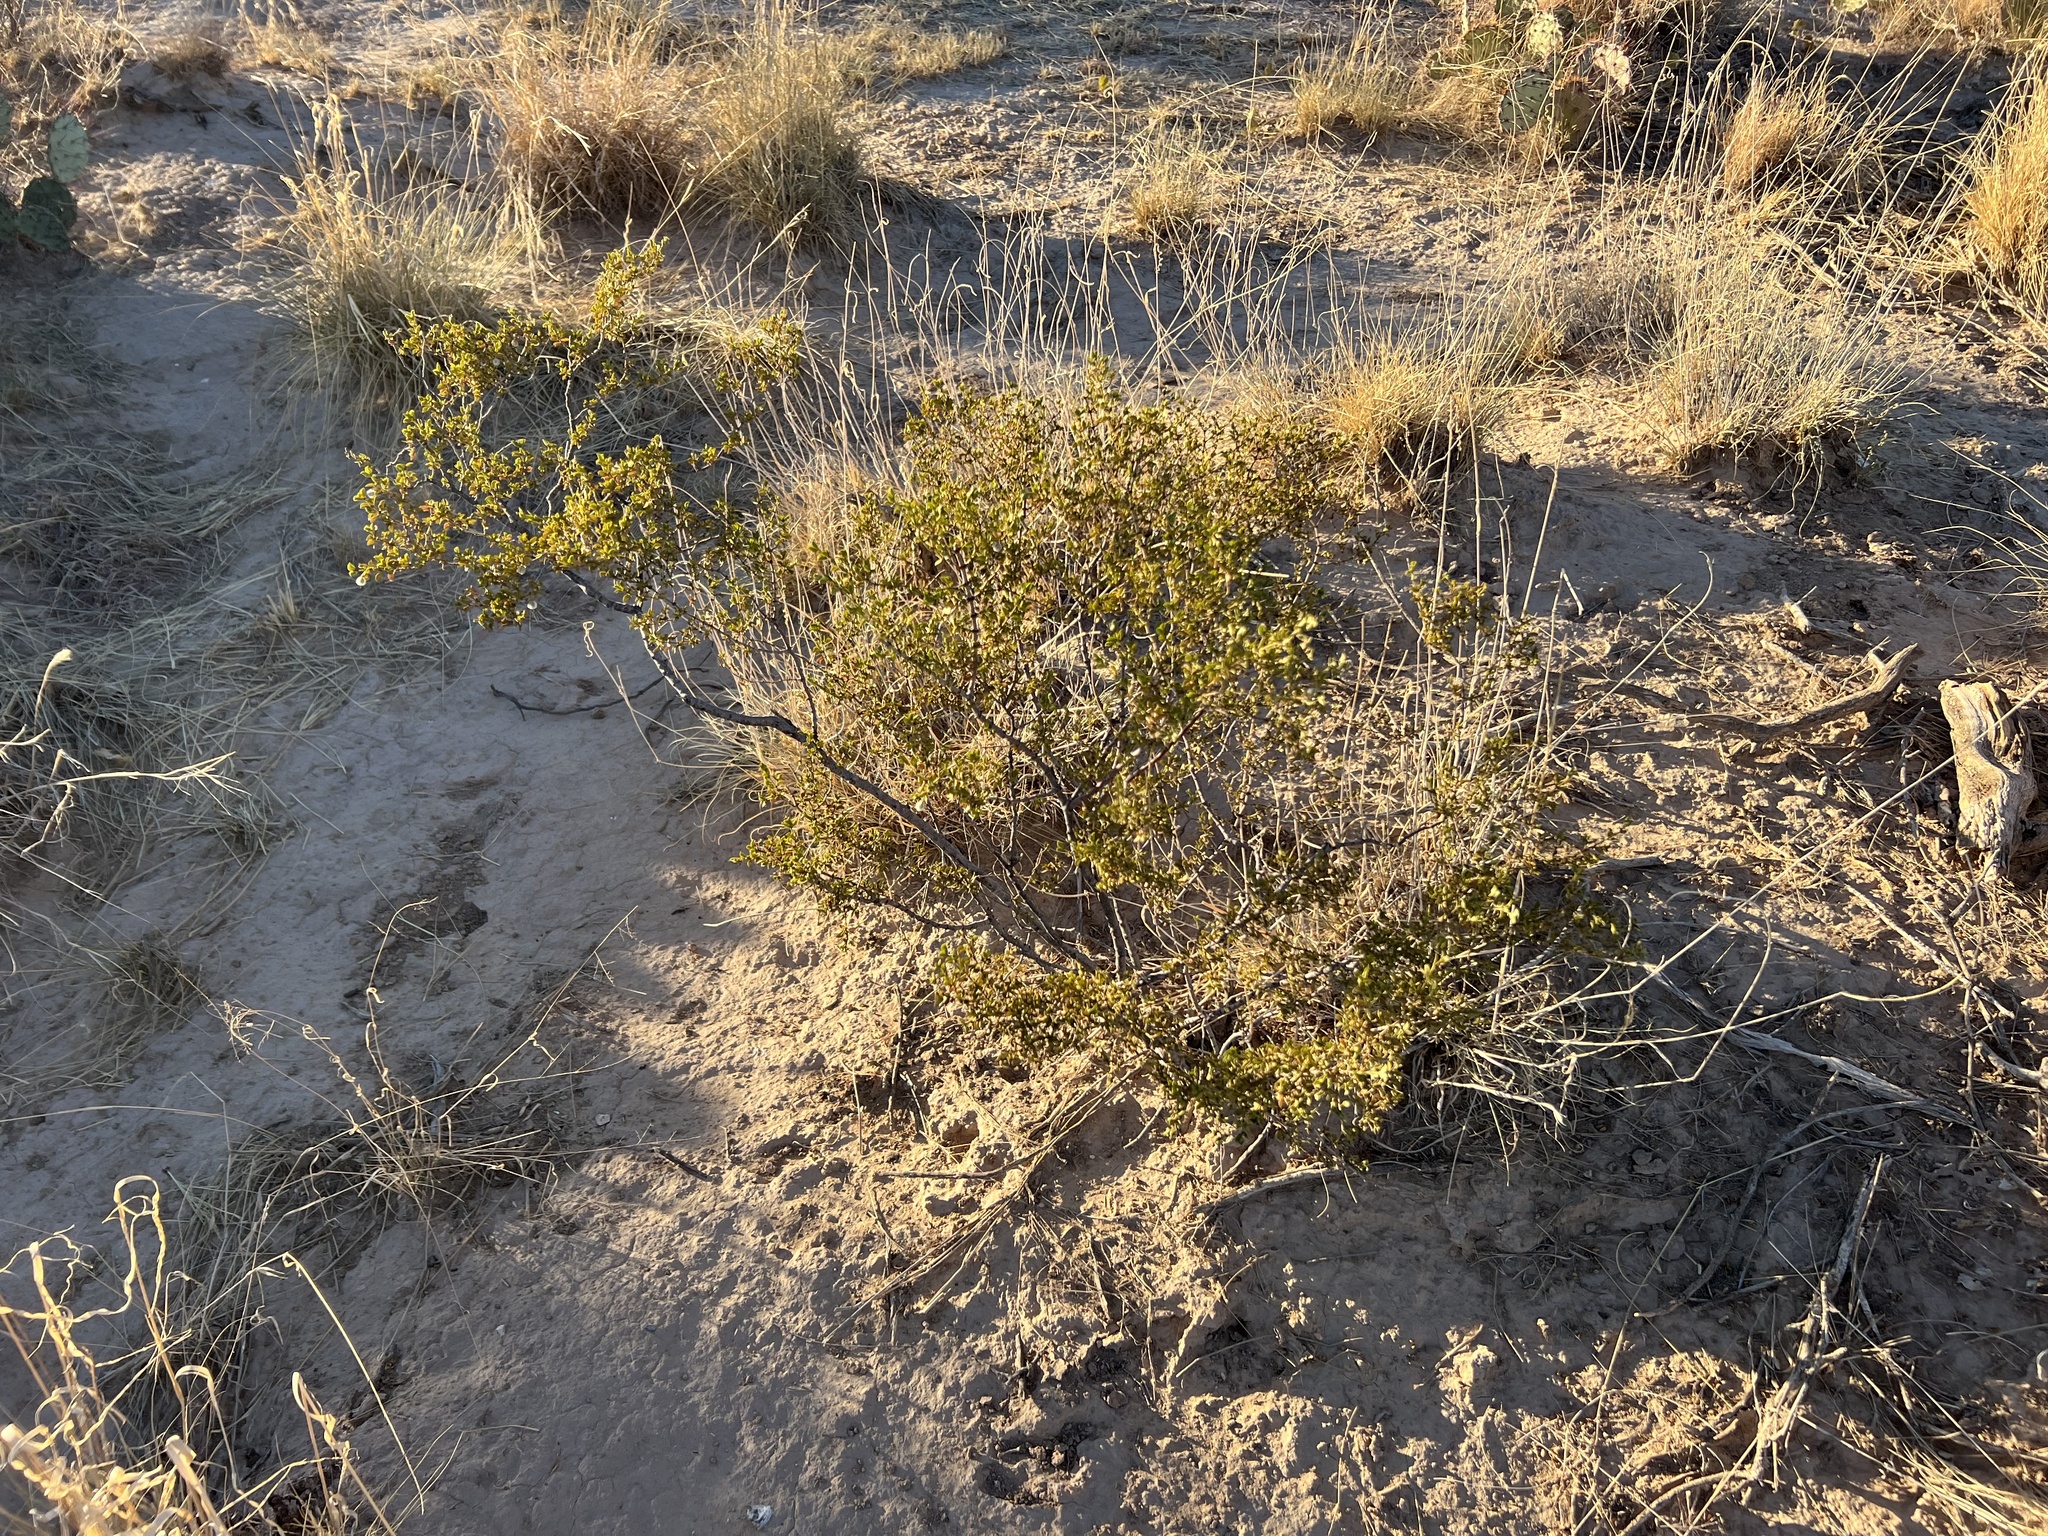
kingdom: Plantae
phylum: Tracheophyta
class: Magnoliopsida
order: Zygophyllales
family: Zygophyllaceae
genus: Larrea
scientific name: Larrea tridentata
